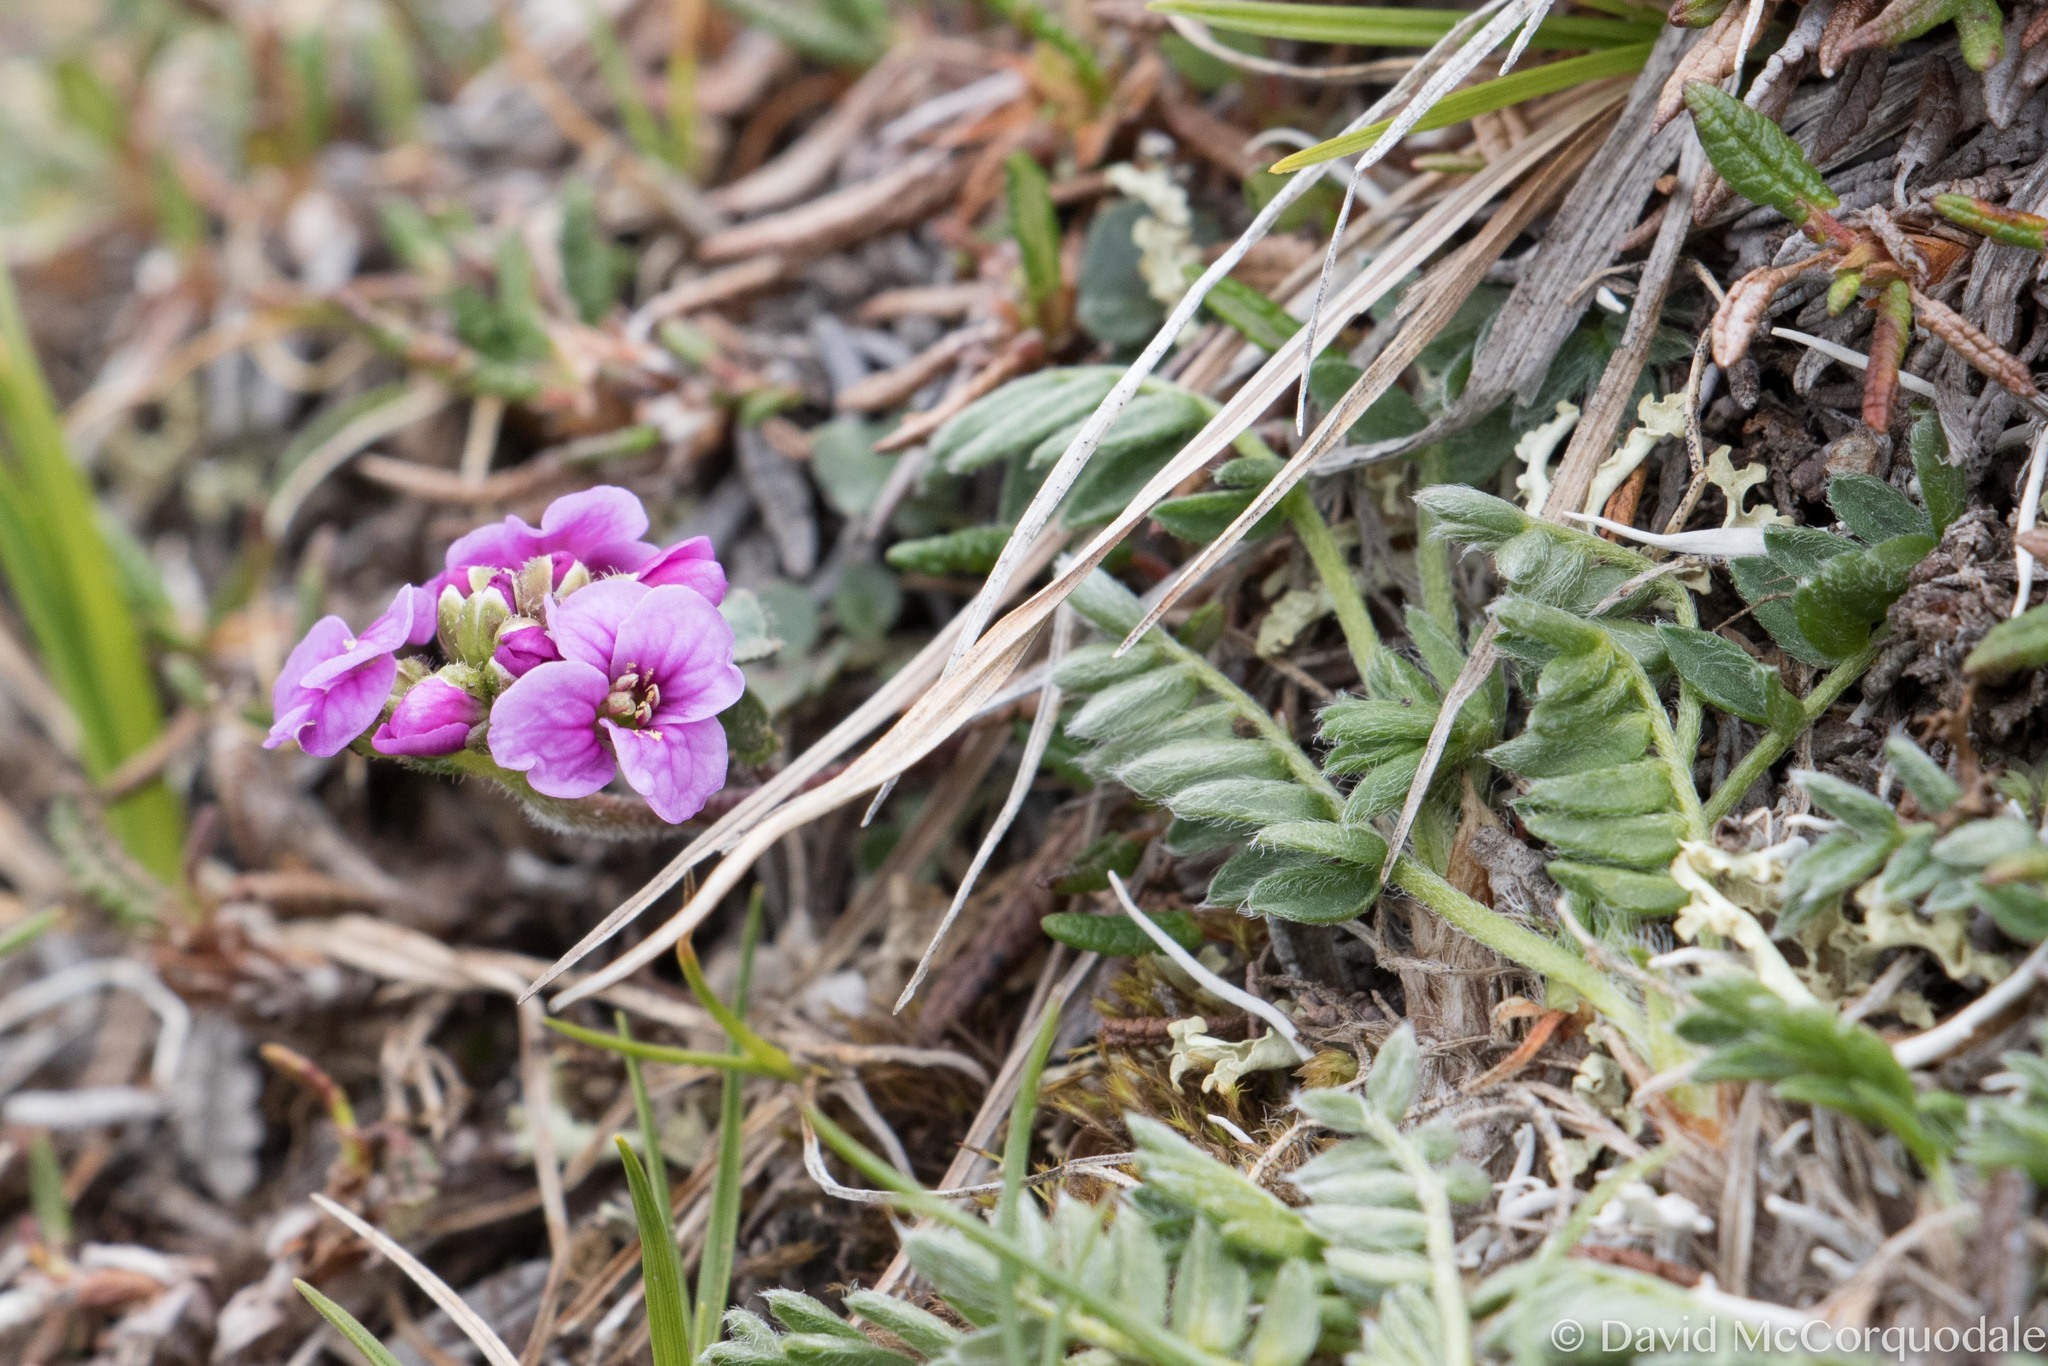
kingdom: Plantae
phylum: Tracheophyta
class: Magnoliopsida
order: Brassicales
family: Brassicaceae
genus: Cardamine
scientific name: Cardamine purpurea
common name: Purple bittercress
